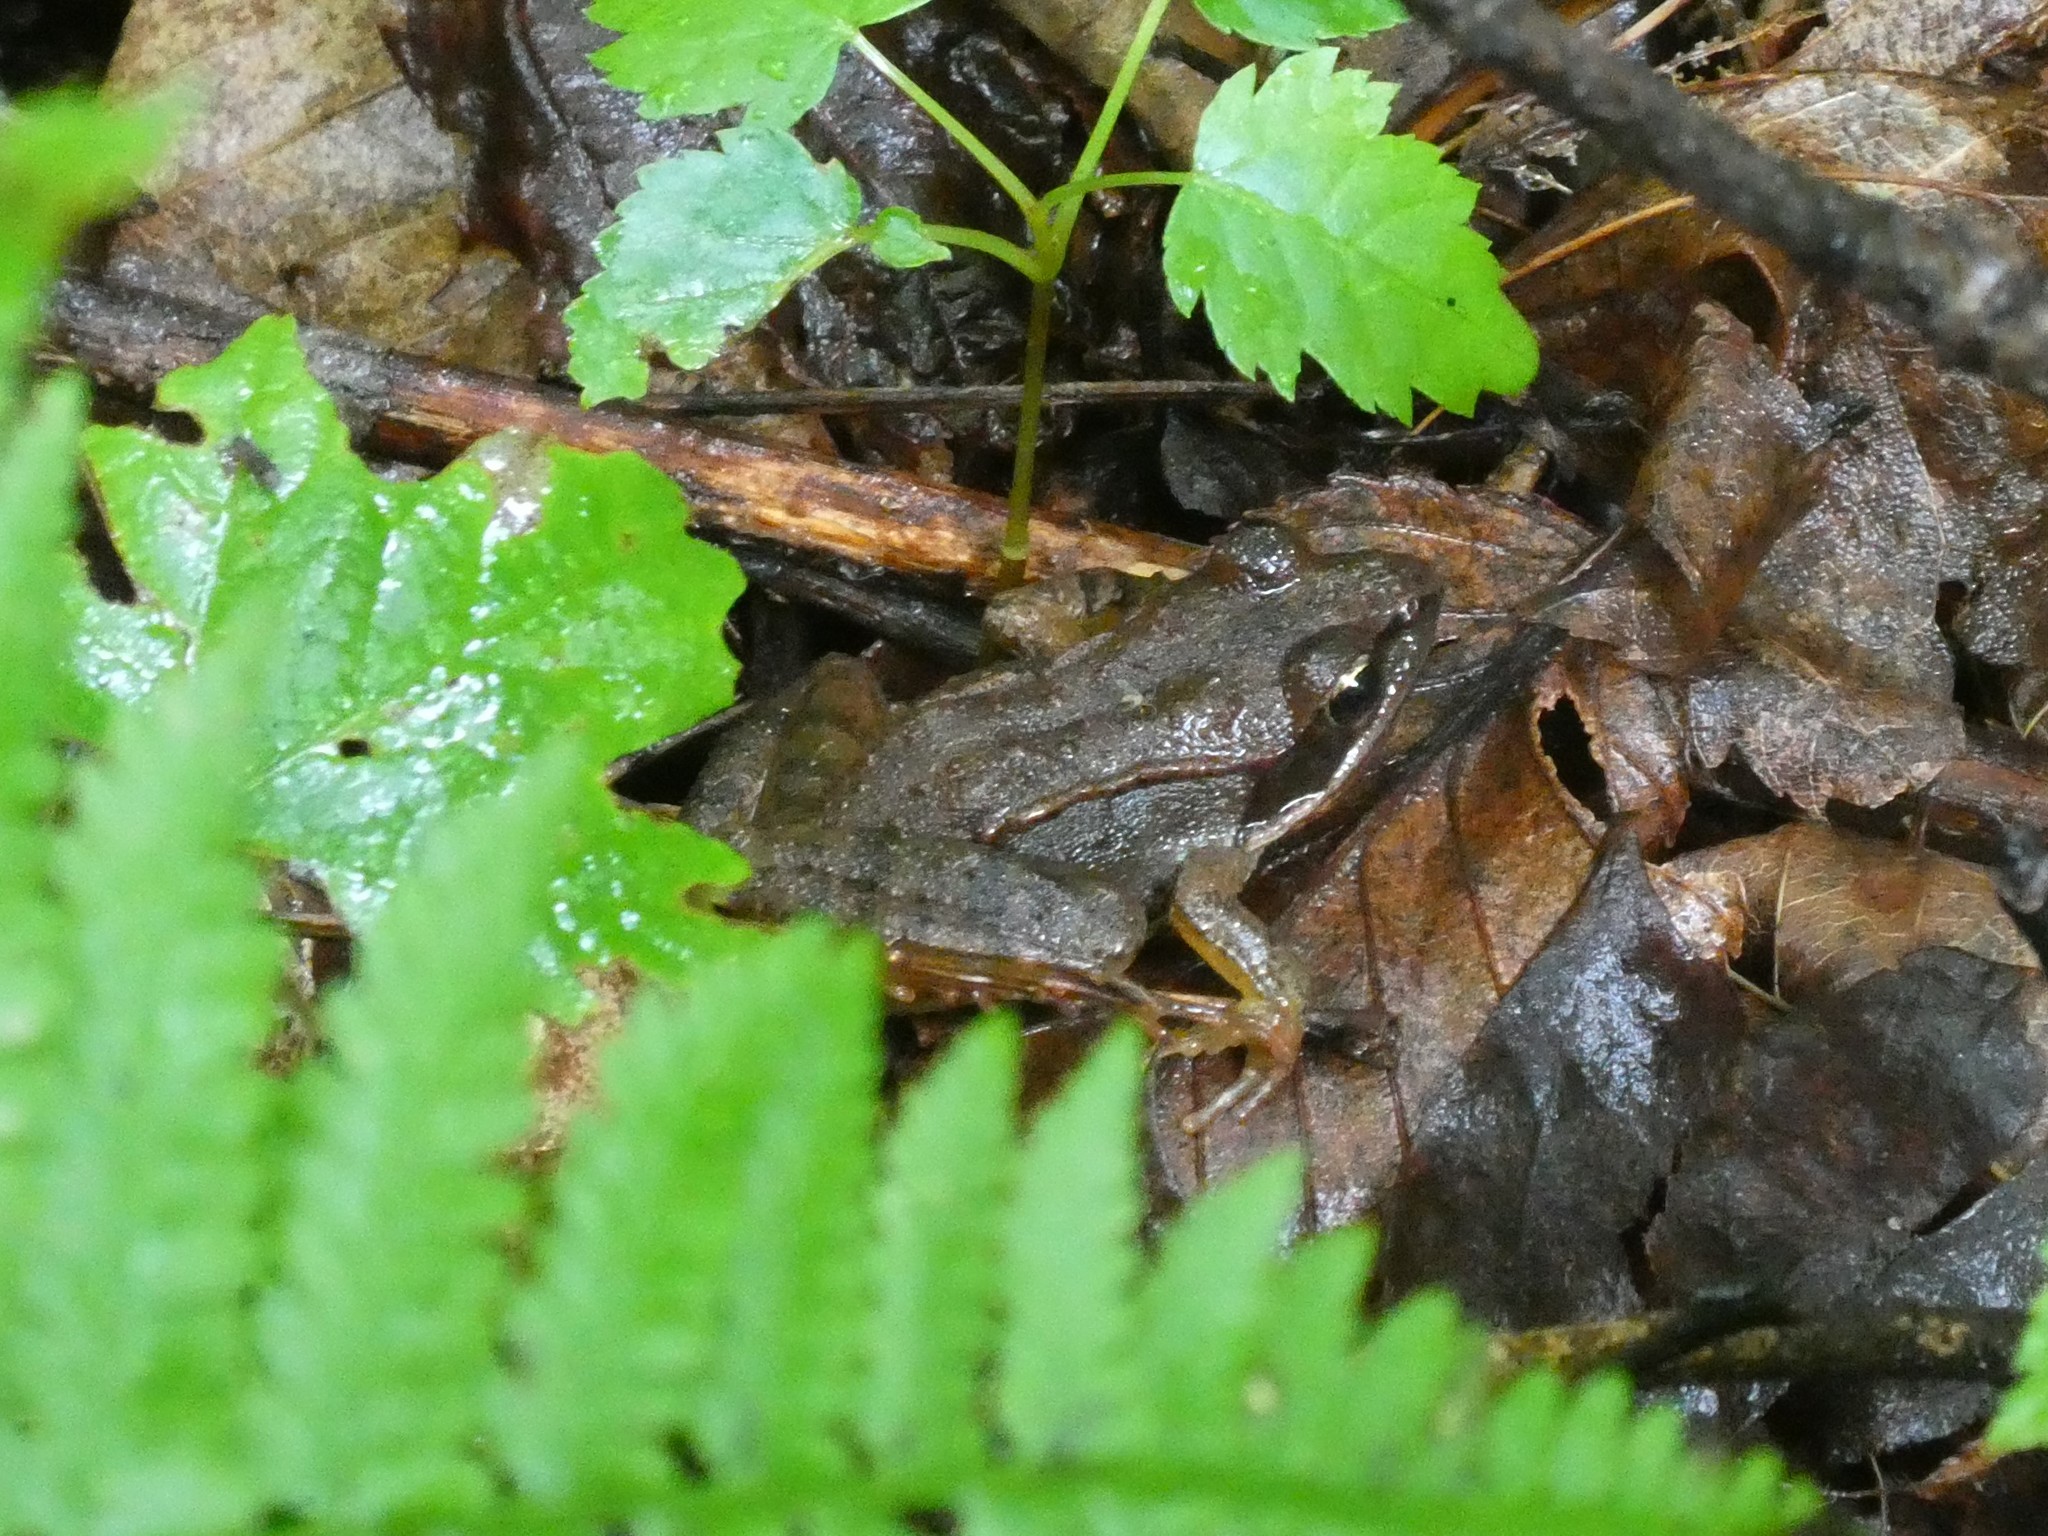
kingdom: Animalia
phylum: Chordata
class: Amphibia
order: Anura
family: Ranidae
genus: Lithobates
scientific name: Lithobates sylvaticus
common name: Wood frog
